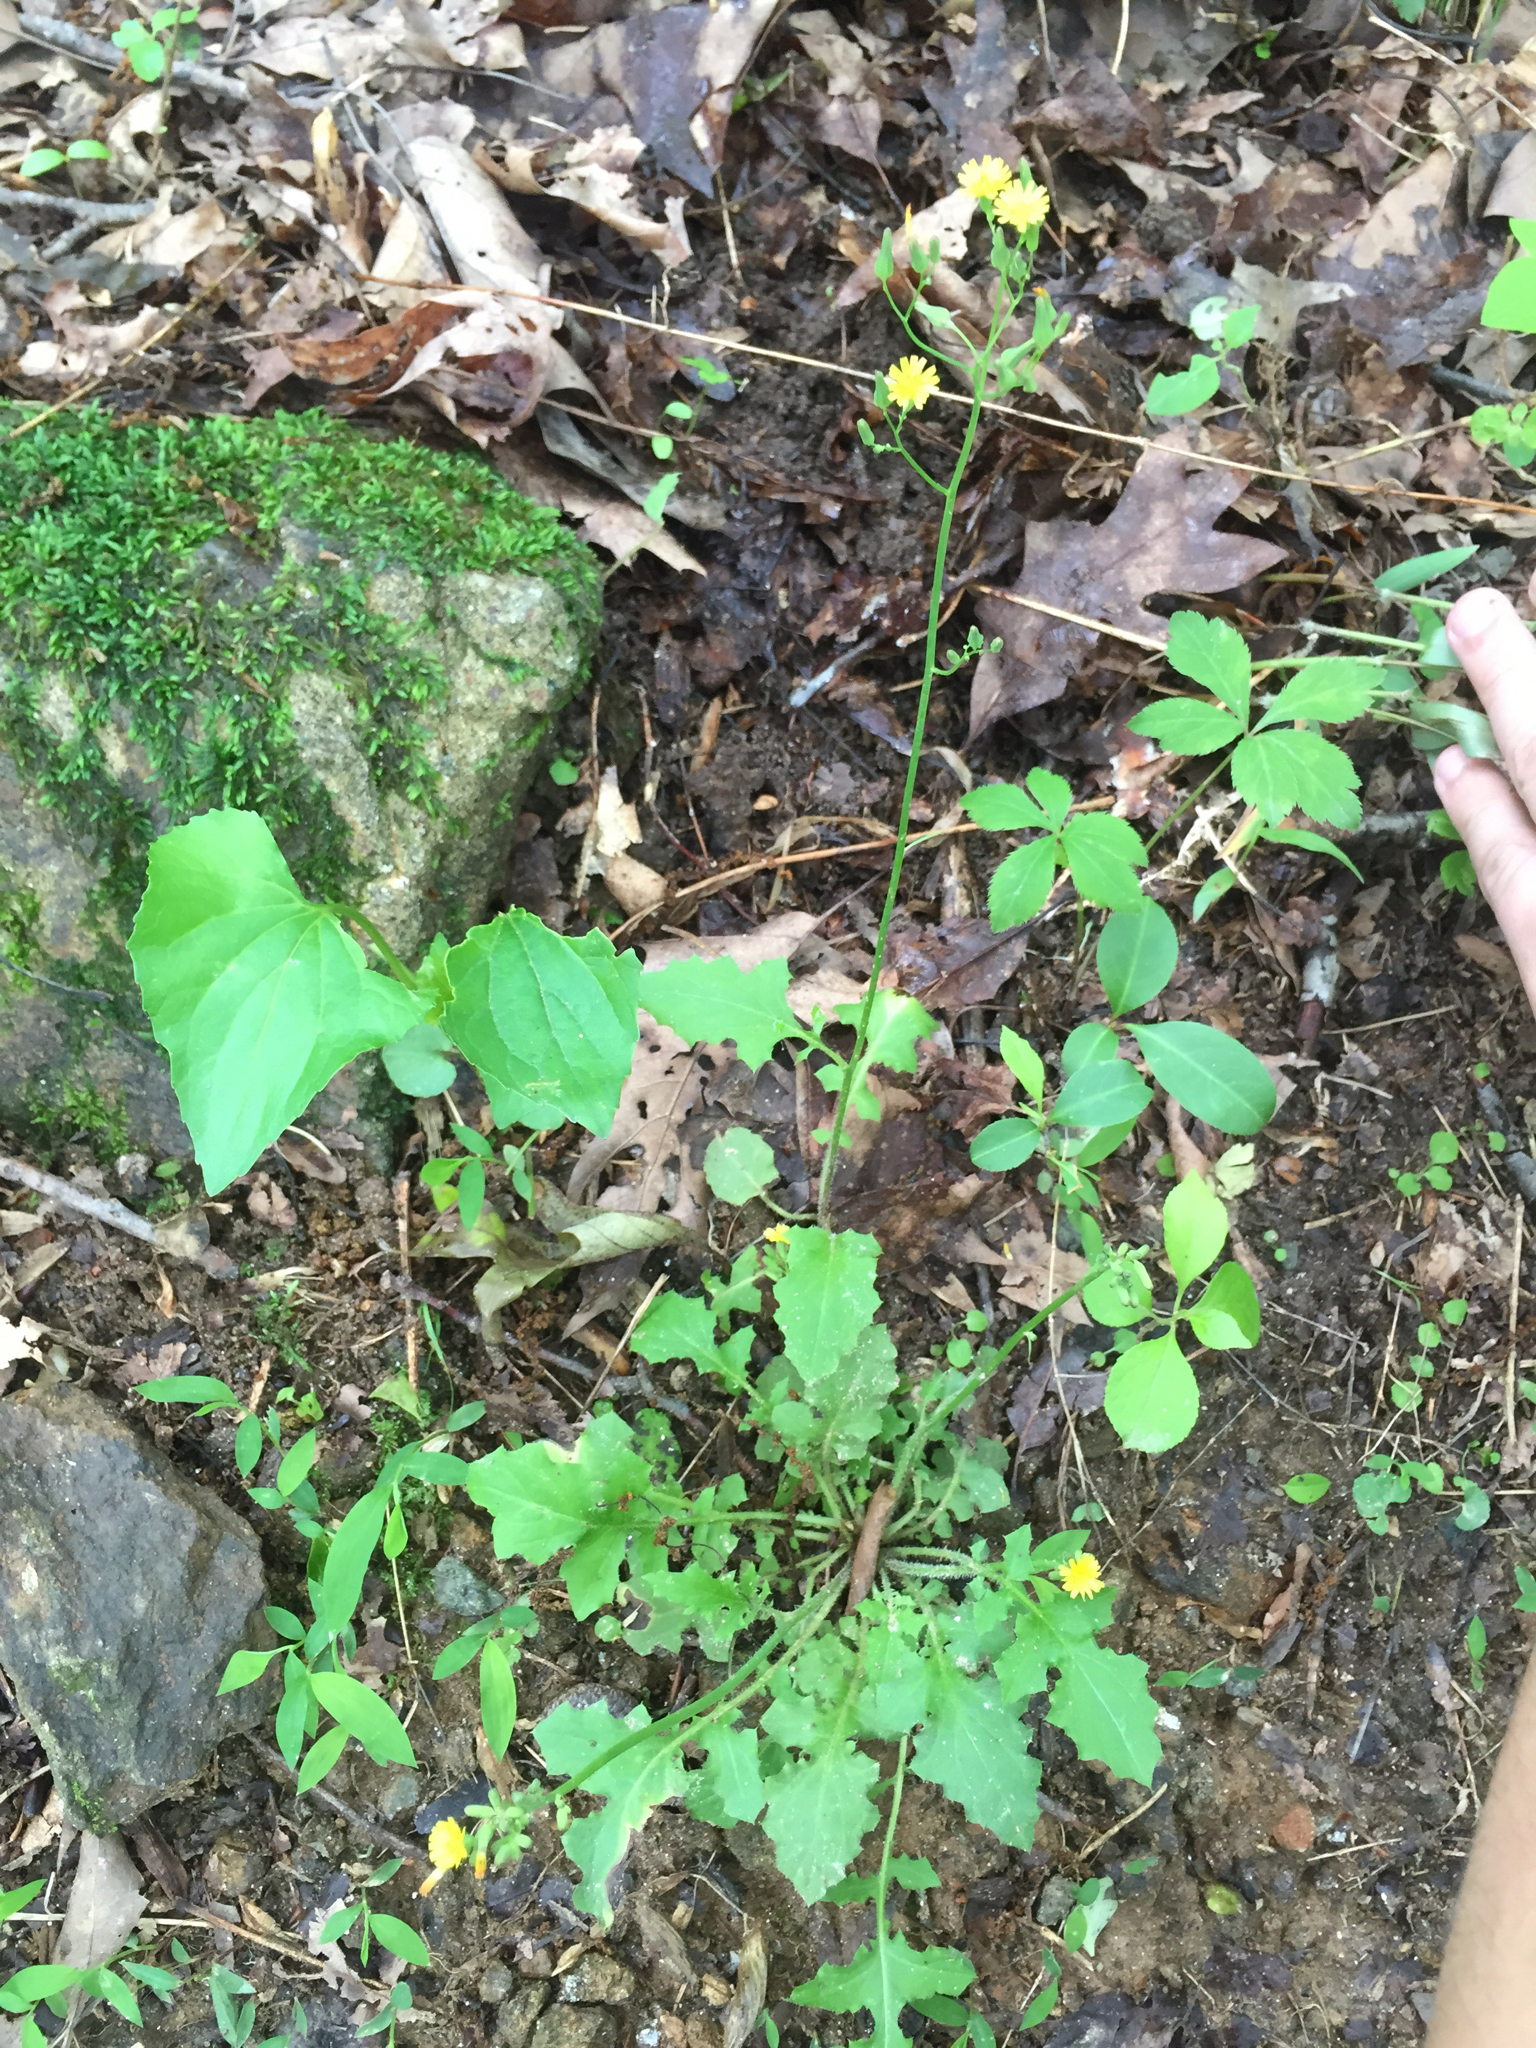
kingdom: Plantae
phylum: Tracheophyta
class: Magnoliopsida
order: Asterales
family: Asteraceae
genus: Youngia
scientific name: Youngia japonica
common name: Oriental false hawksbeard
